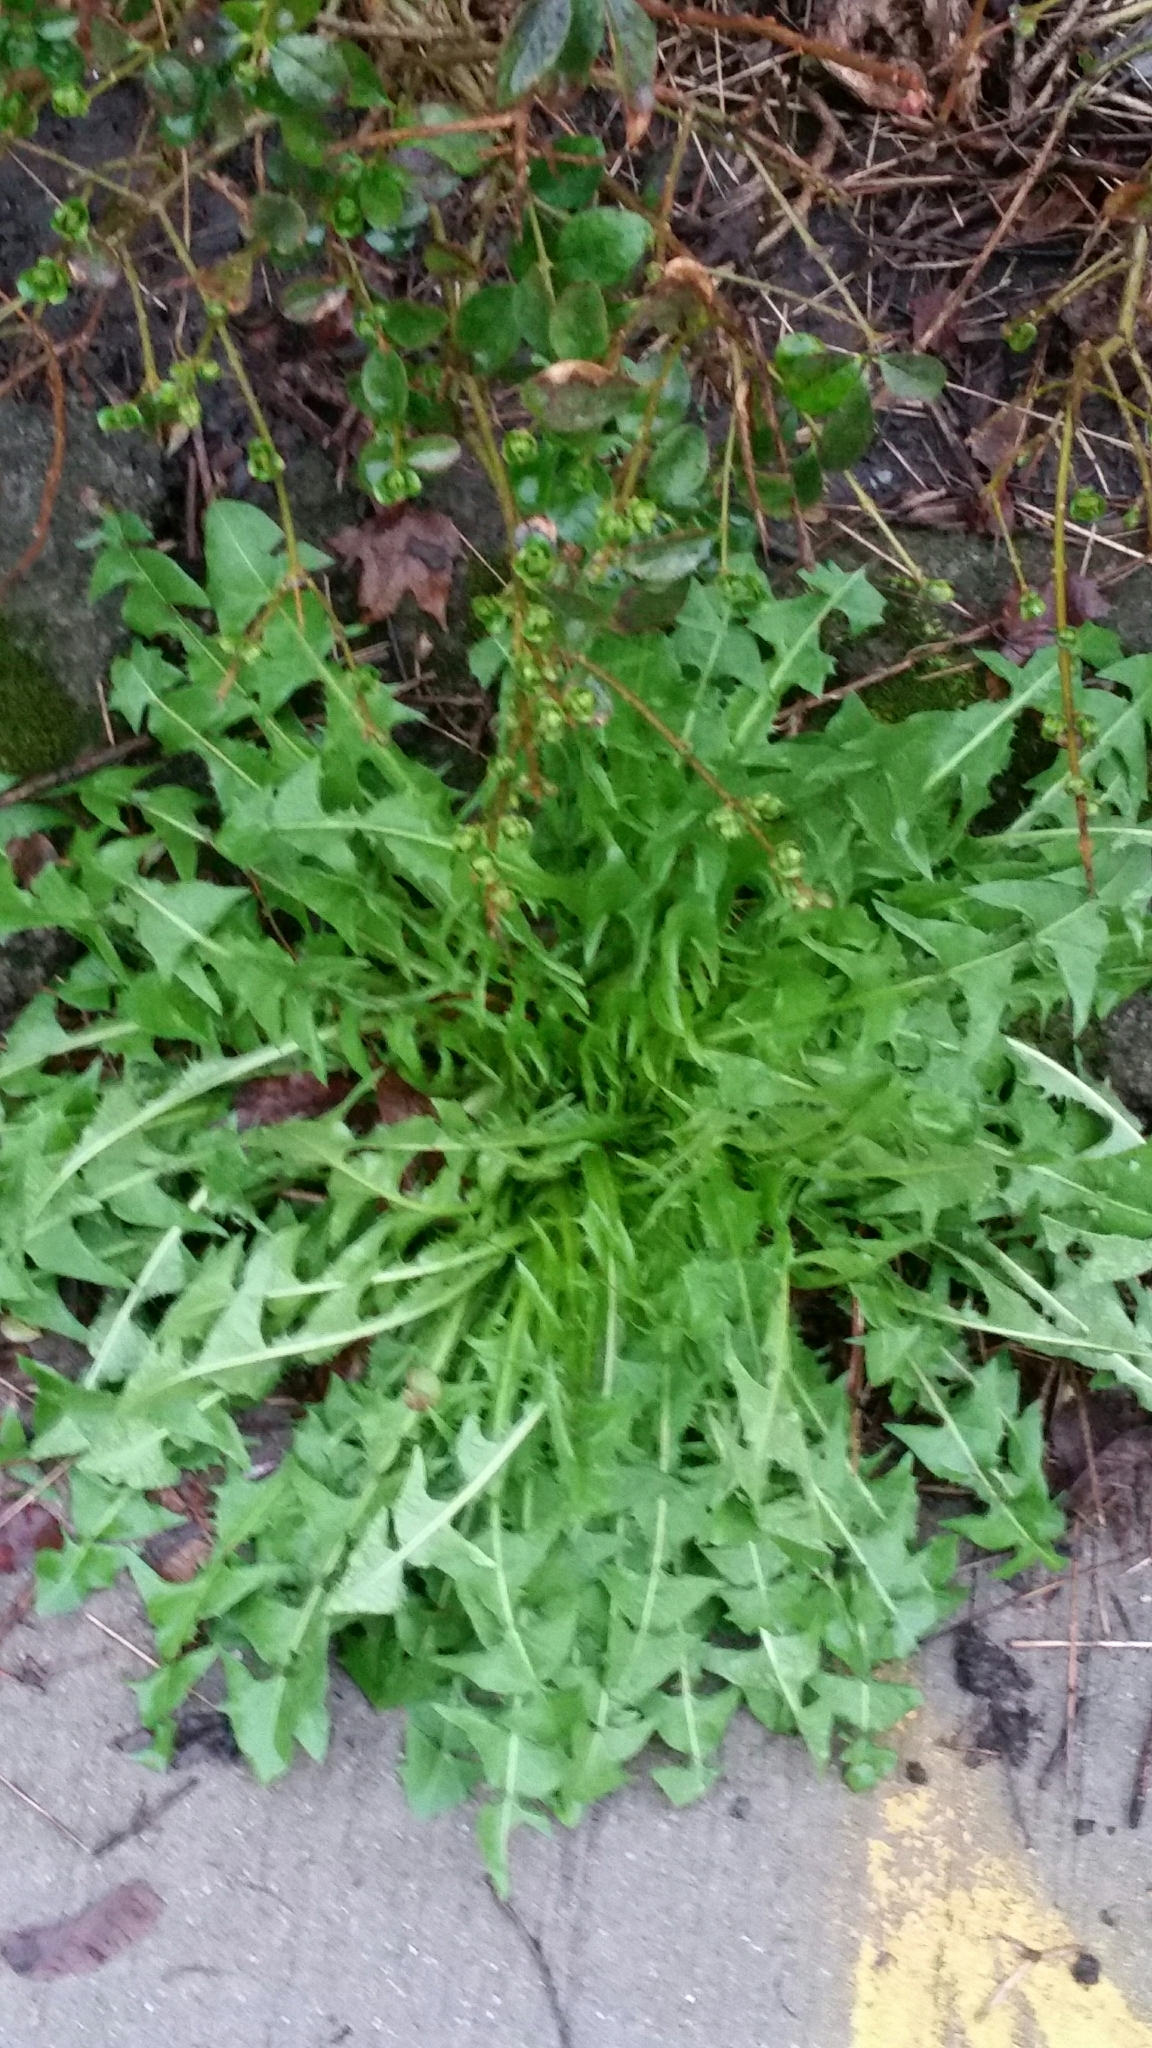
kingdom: Plantae
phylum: Tracheophyta
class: Magnoliopsida
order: Asterales
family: Asteraceae
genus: Taraxacum
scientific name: Taraxacum officinale
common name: Common dandelion
